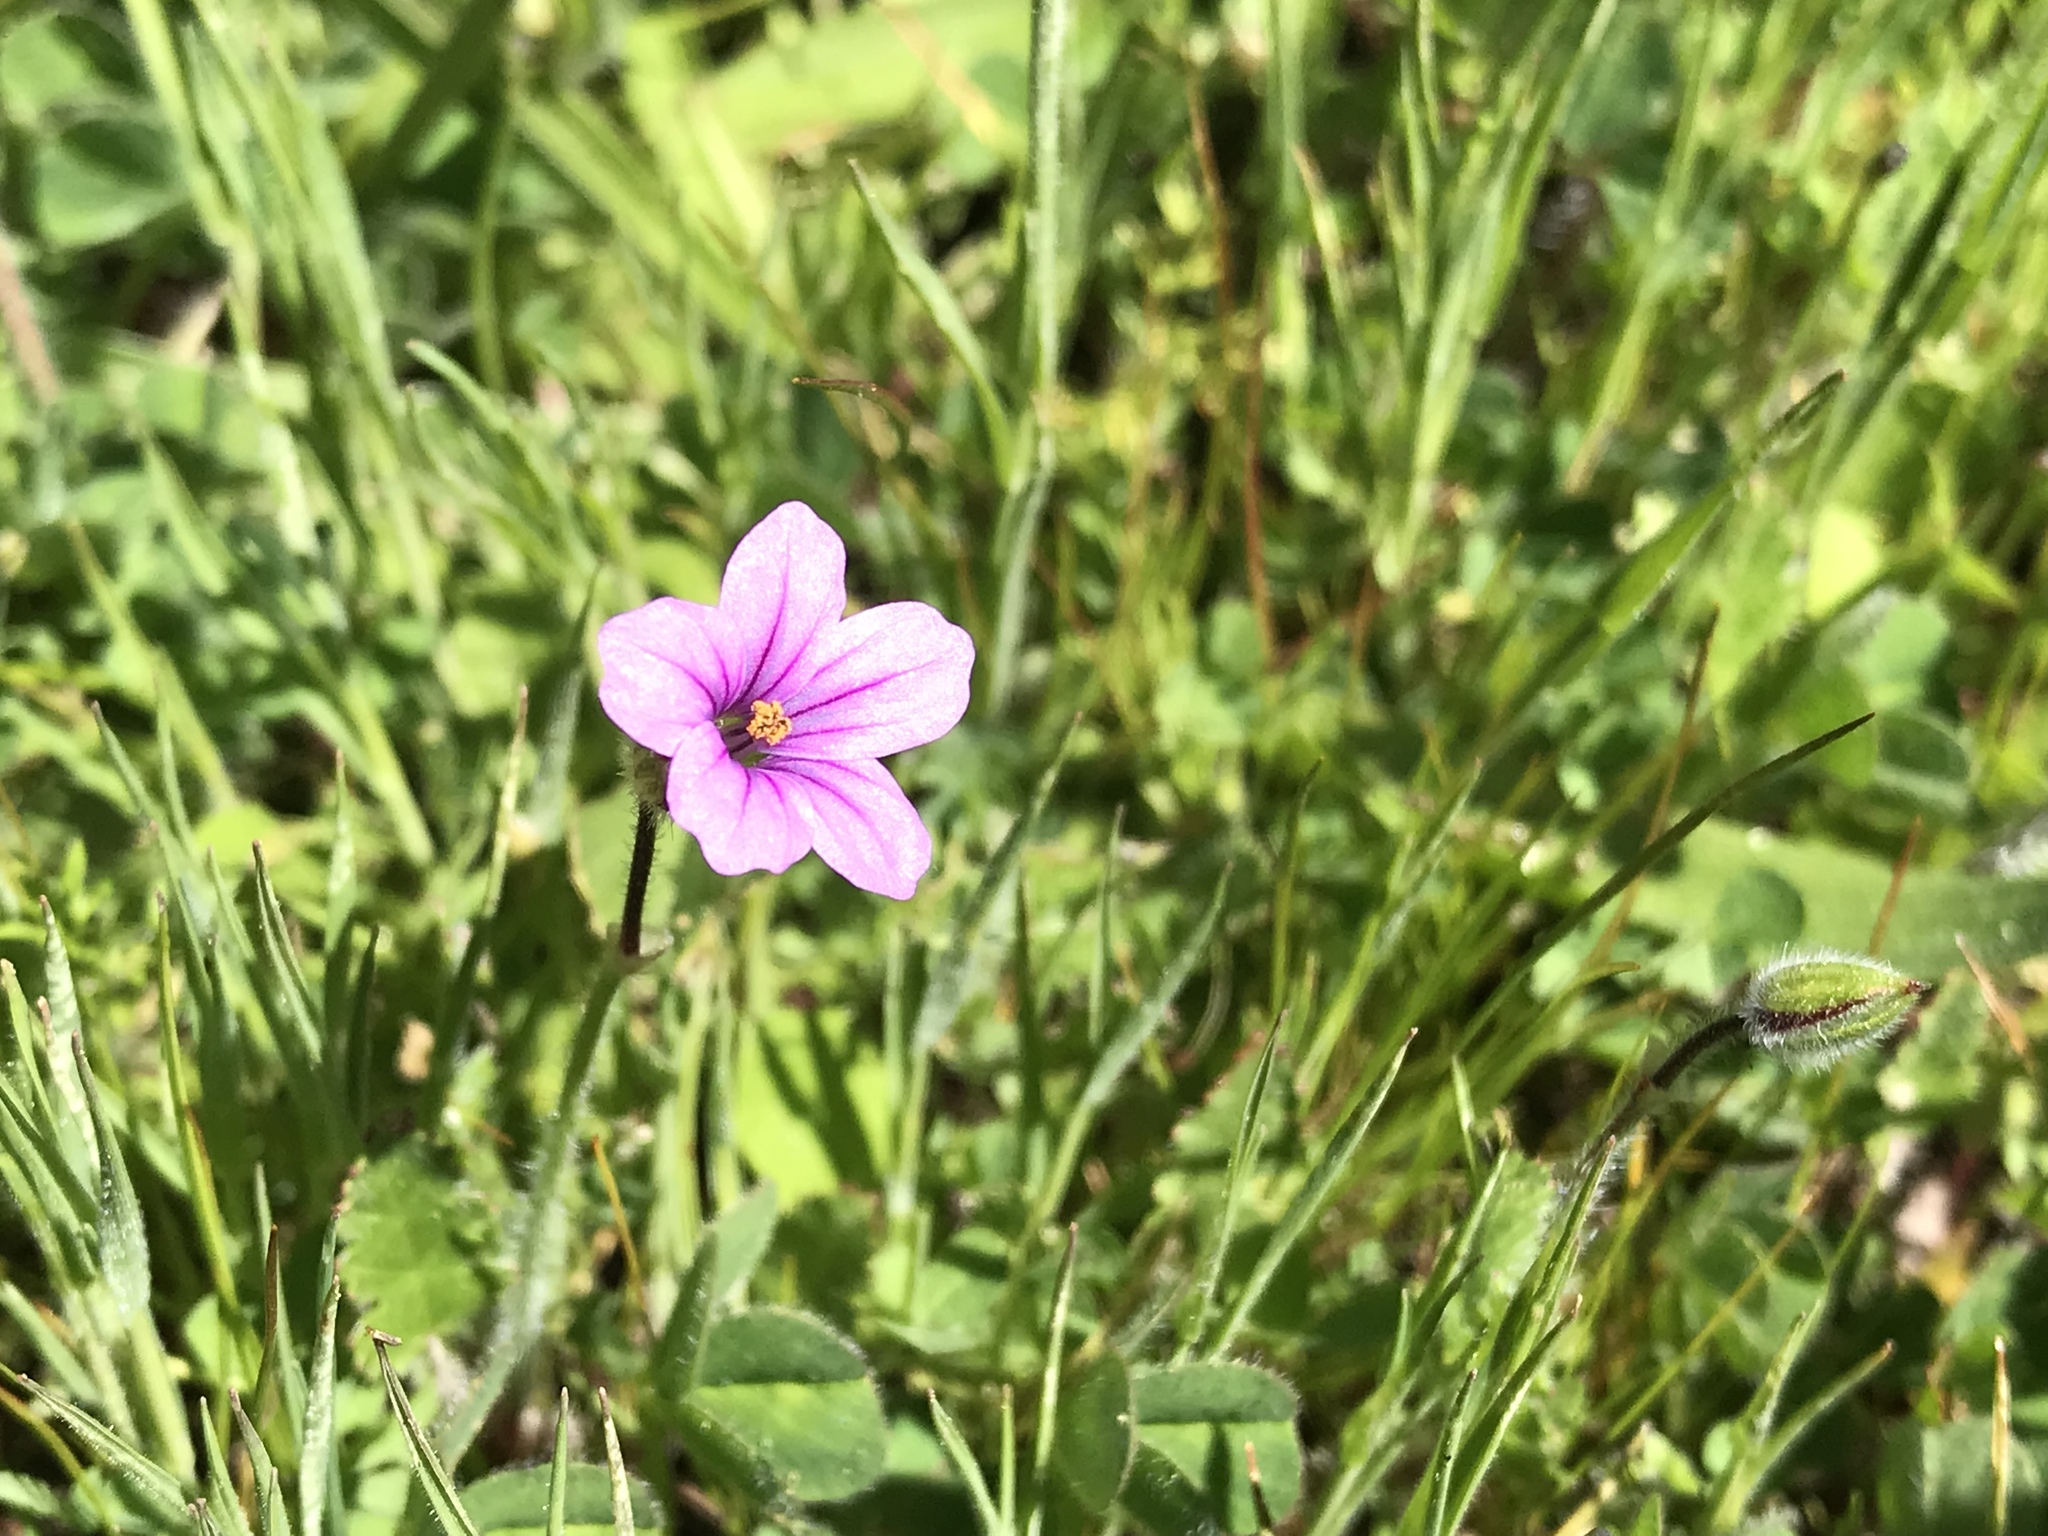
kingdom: Plantae
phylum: Tracheophyta
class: Magnoliopsida
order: Geraniales
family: Geraniaceae
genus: Erodium
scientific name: Erodium botrys
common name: Mediterranean stork's-bill
